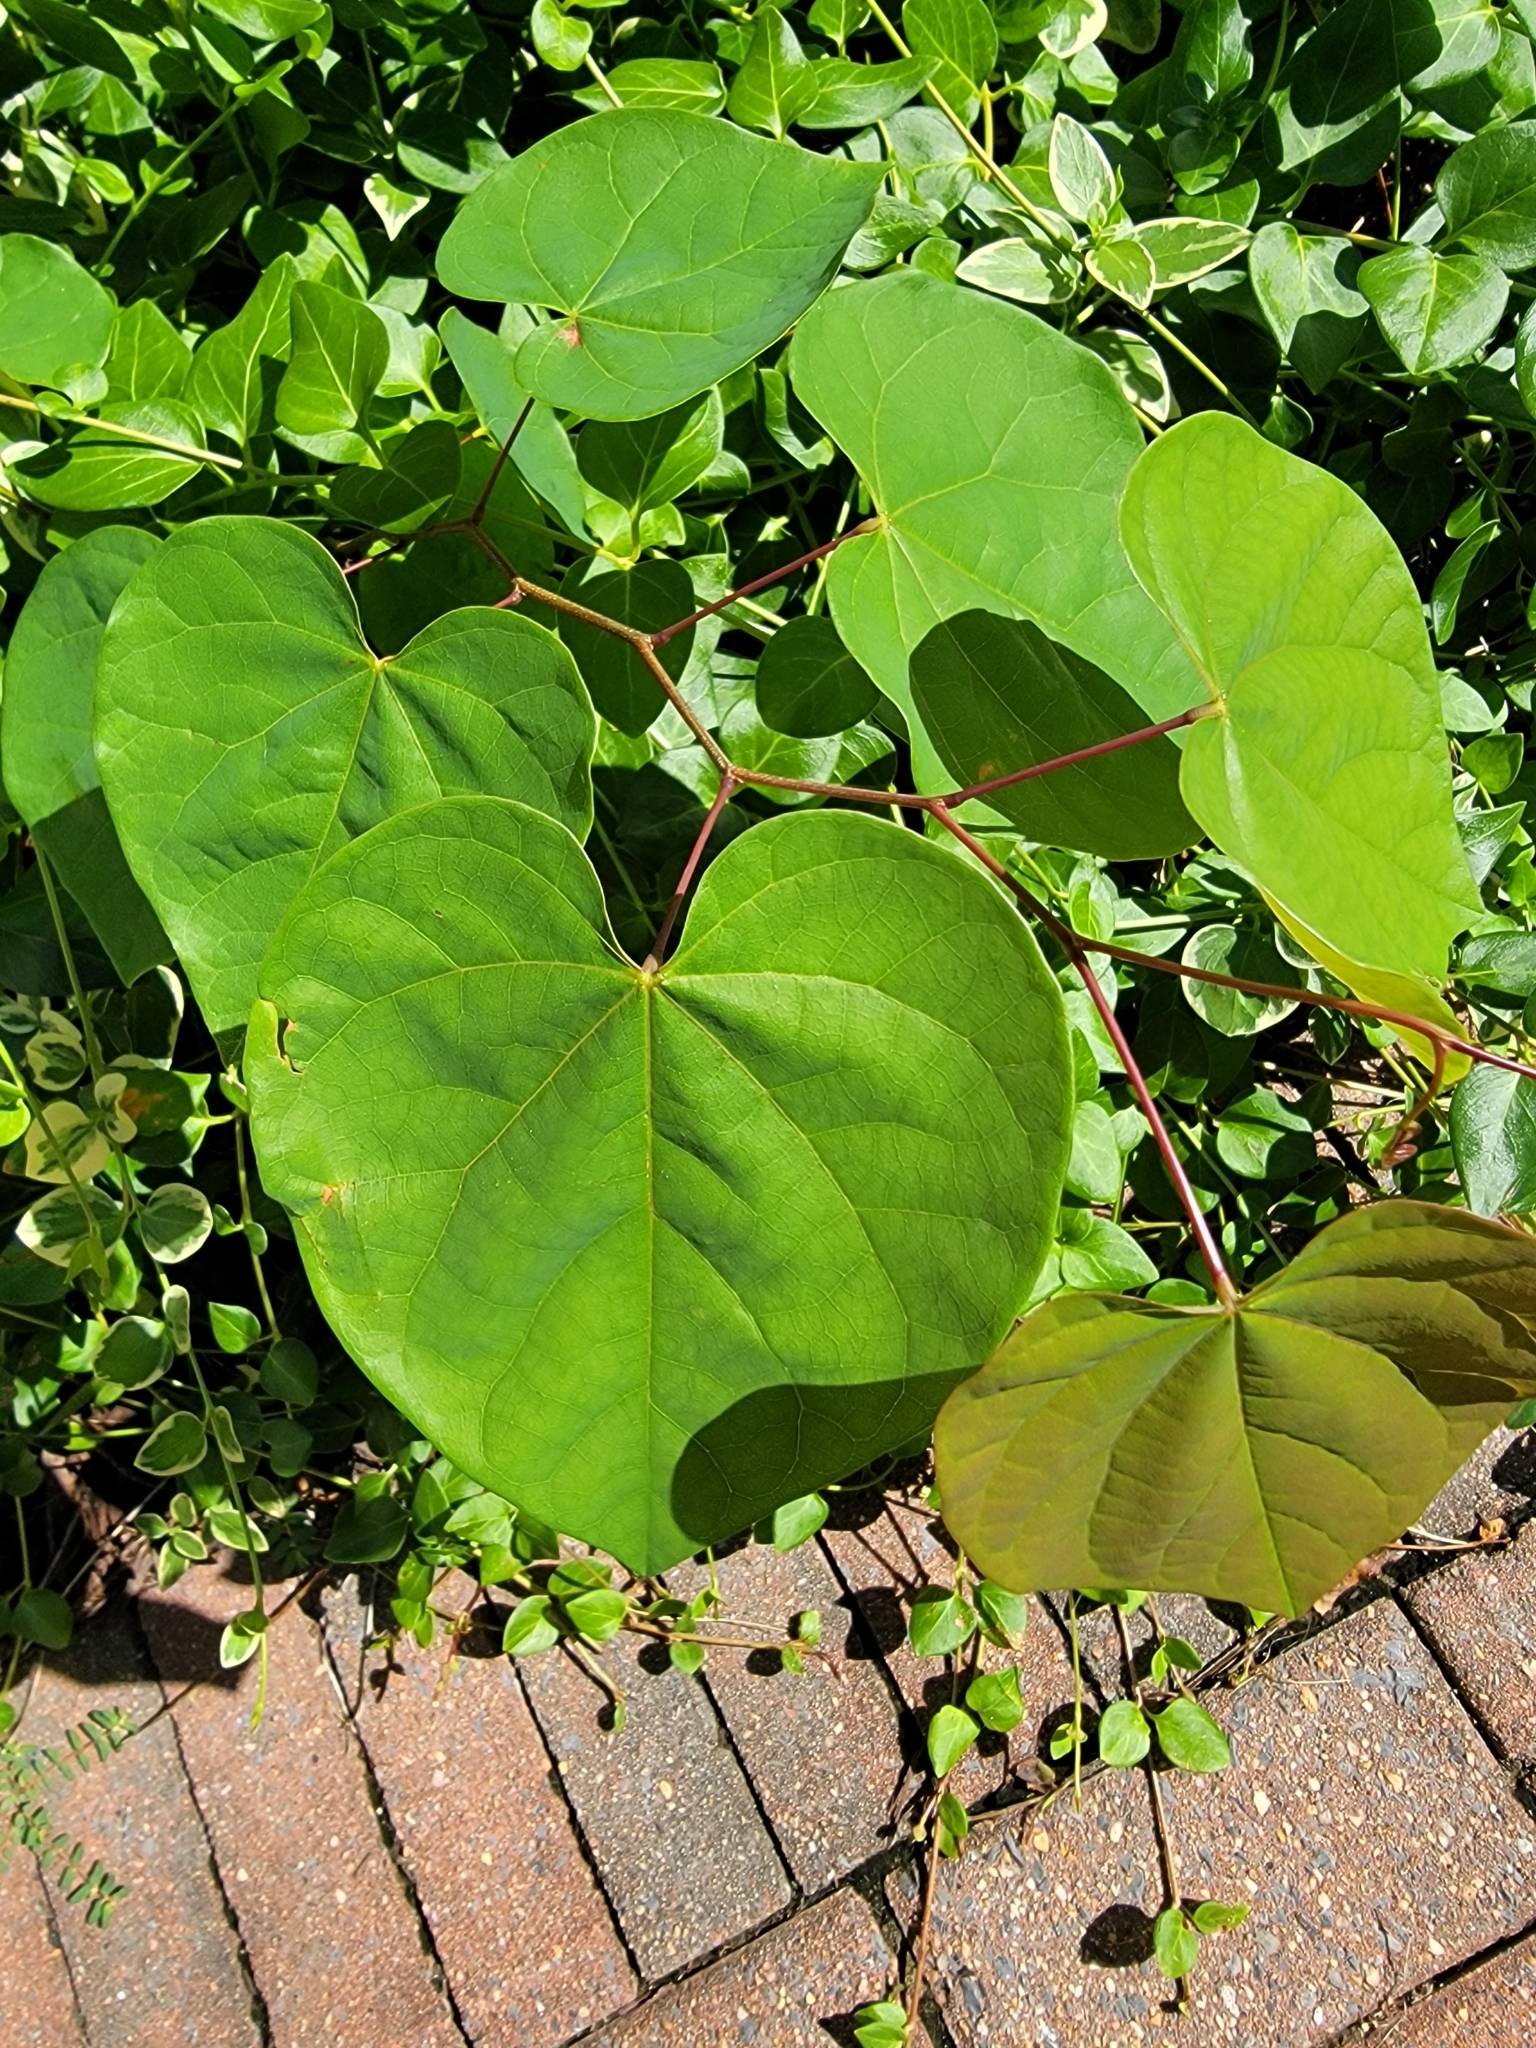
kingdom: Plantae
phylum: Tracheophyta
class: Magnoliopsida
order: Fabales
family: Fabaceae
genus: Cercis
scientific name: Cercis canadensis
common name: Eastern redbud
